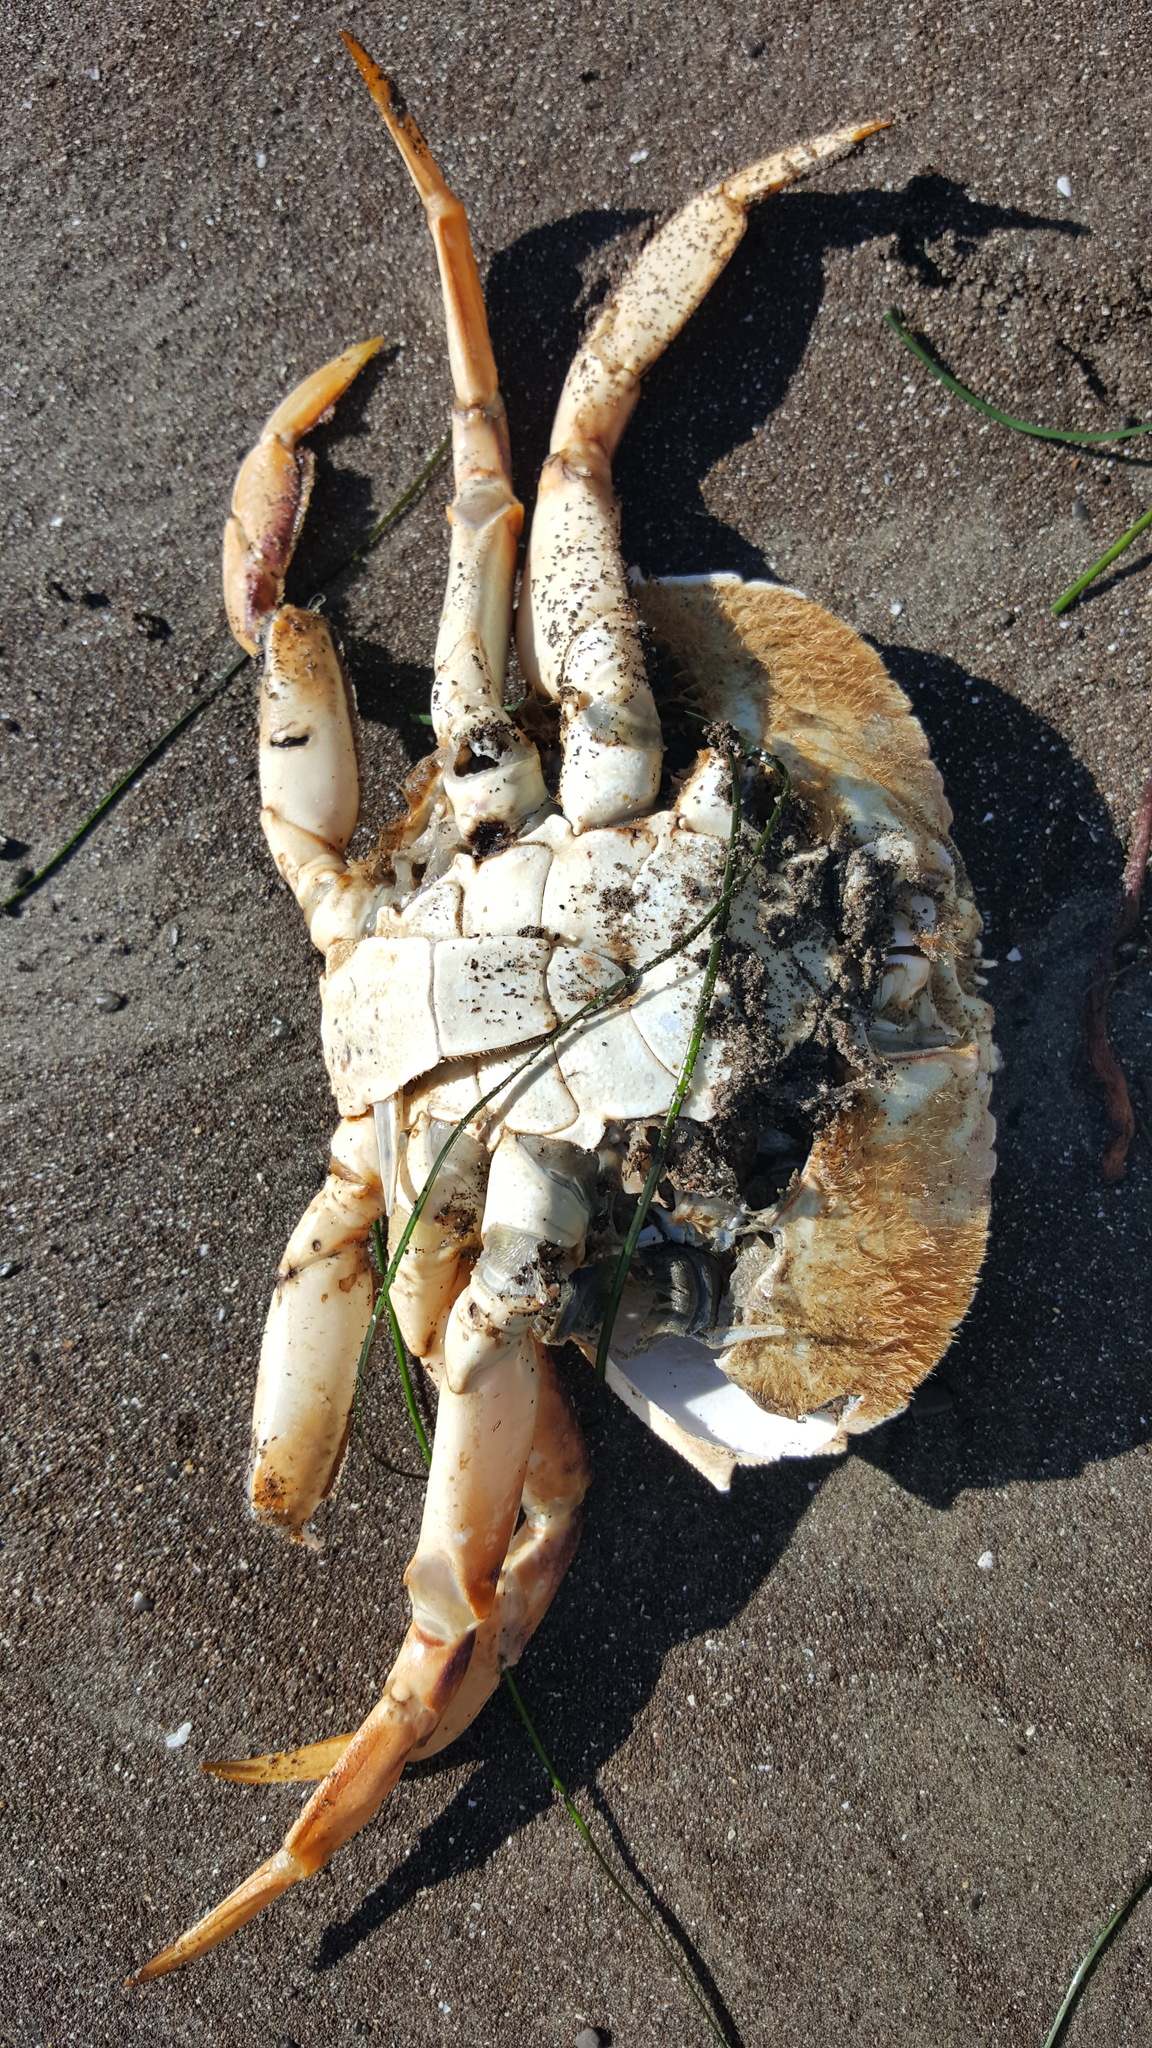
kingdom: Animalia
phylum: Arthropoda
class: Malacostraca
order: Decapoda
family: Cancridae
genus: Metacarcinus
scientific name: Metacarcinus magister
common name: Californian crab
